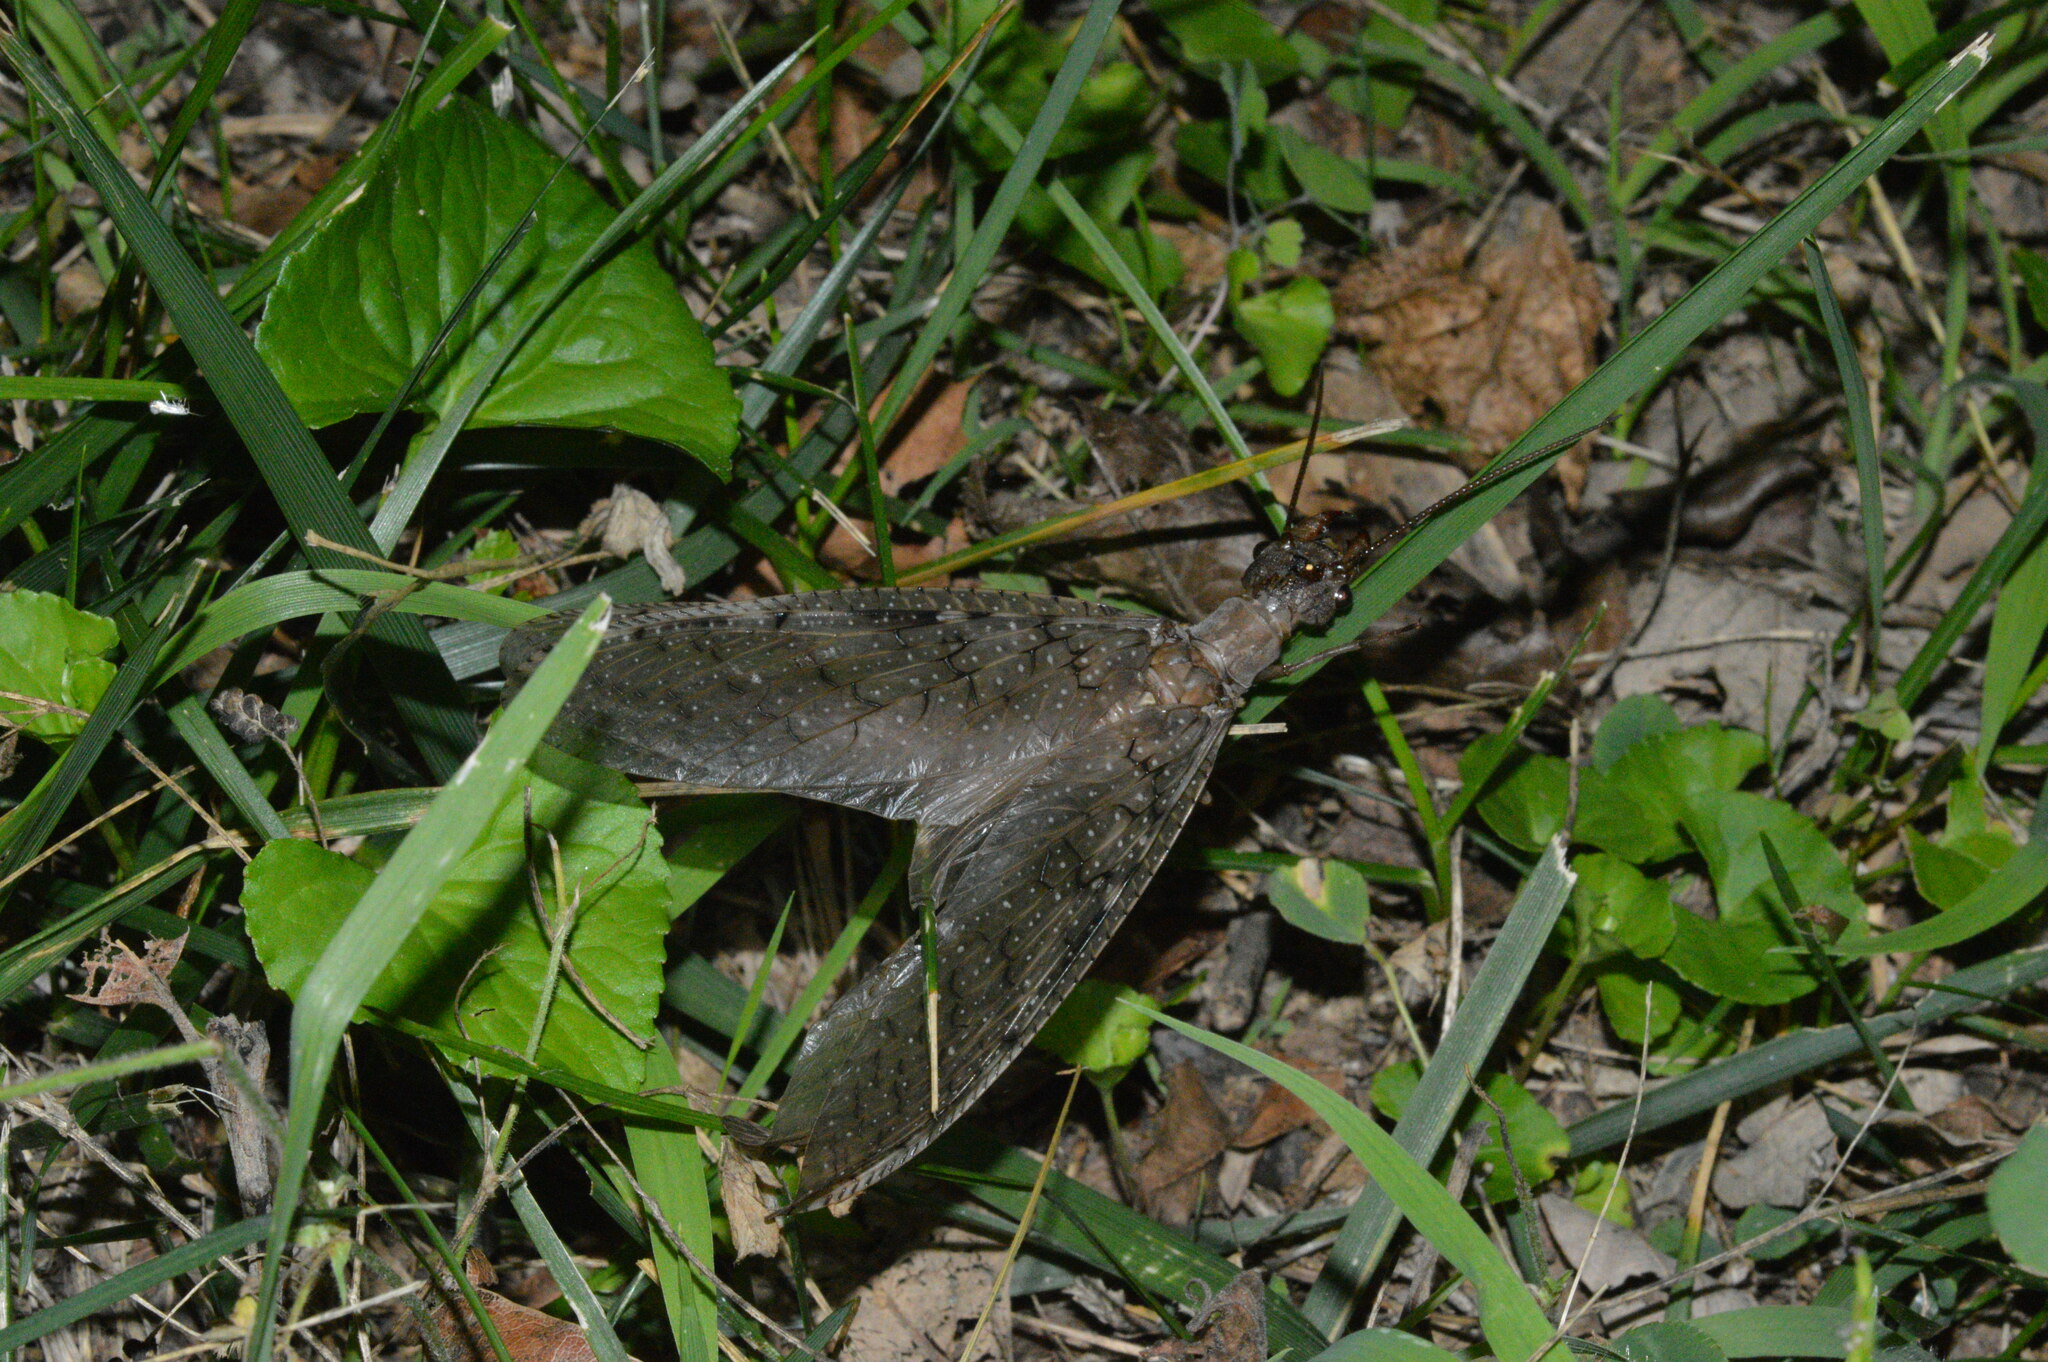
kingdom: Animalia
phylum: Arthropoda
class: Insecta
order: Megaloptera
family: Corydalidae
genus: Corydalus
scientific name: Corydalus cornutus
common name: Dobsonfly
